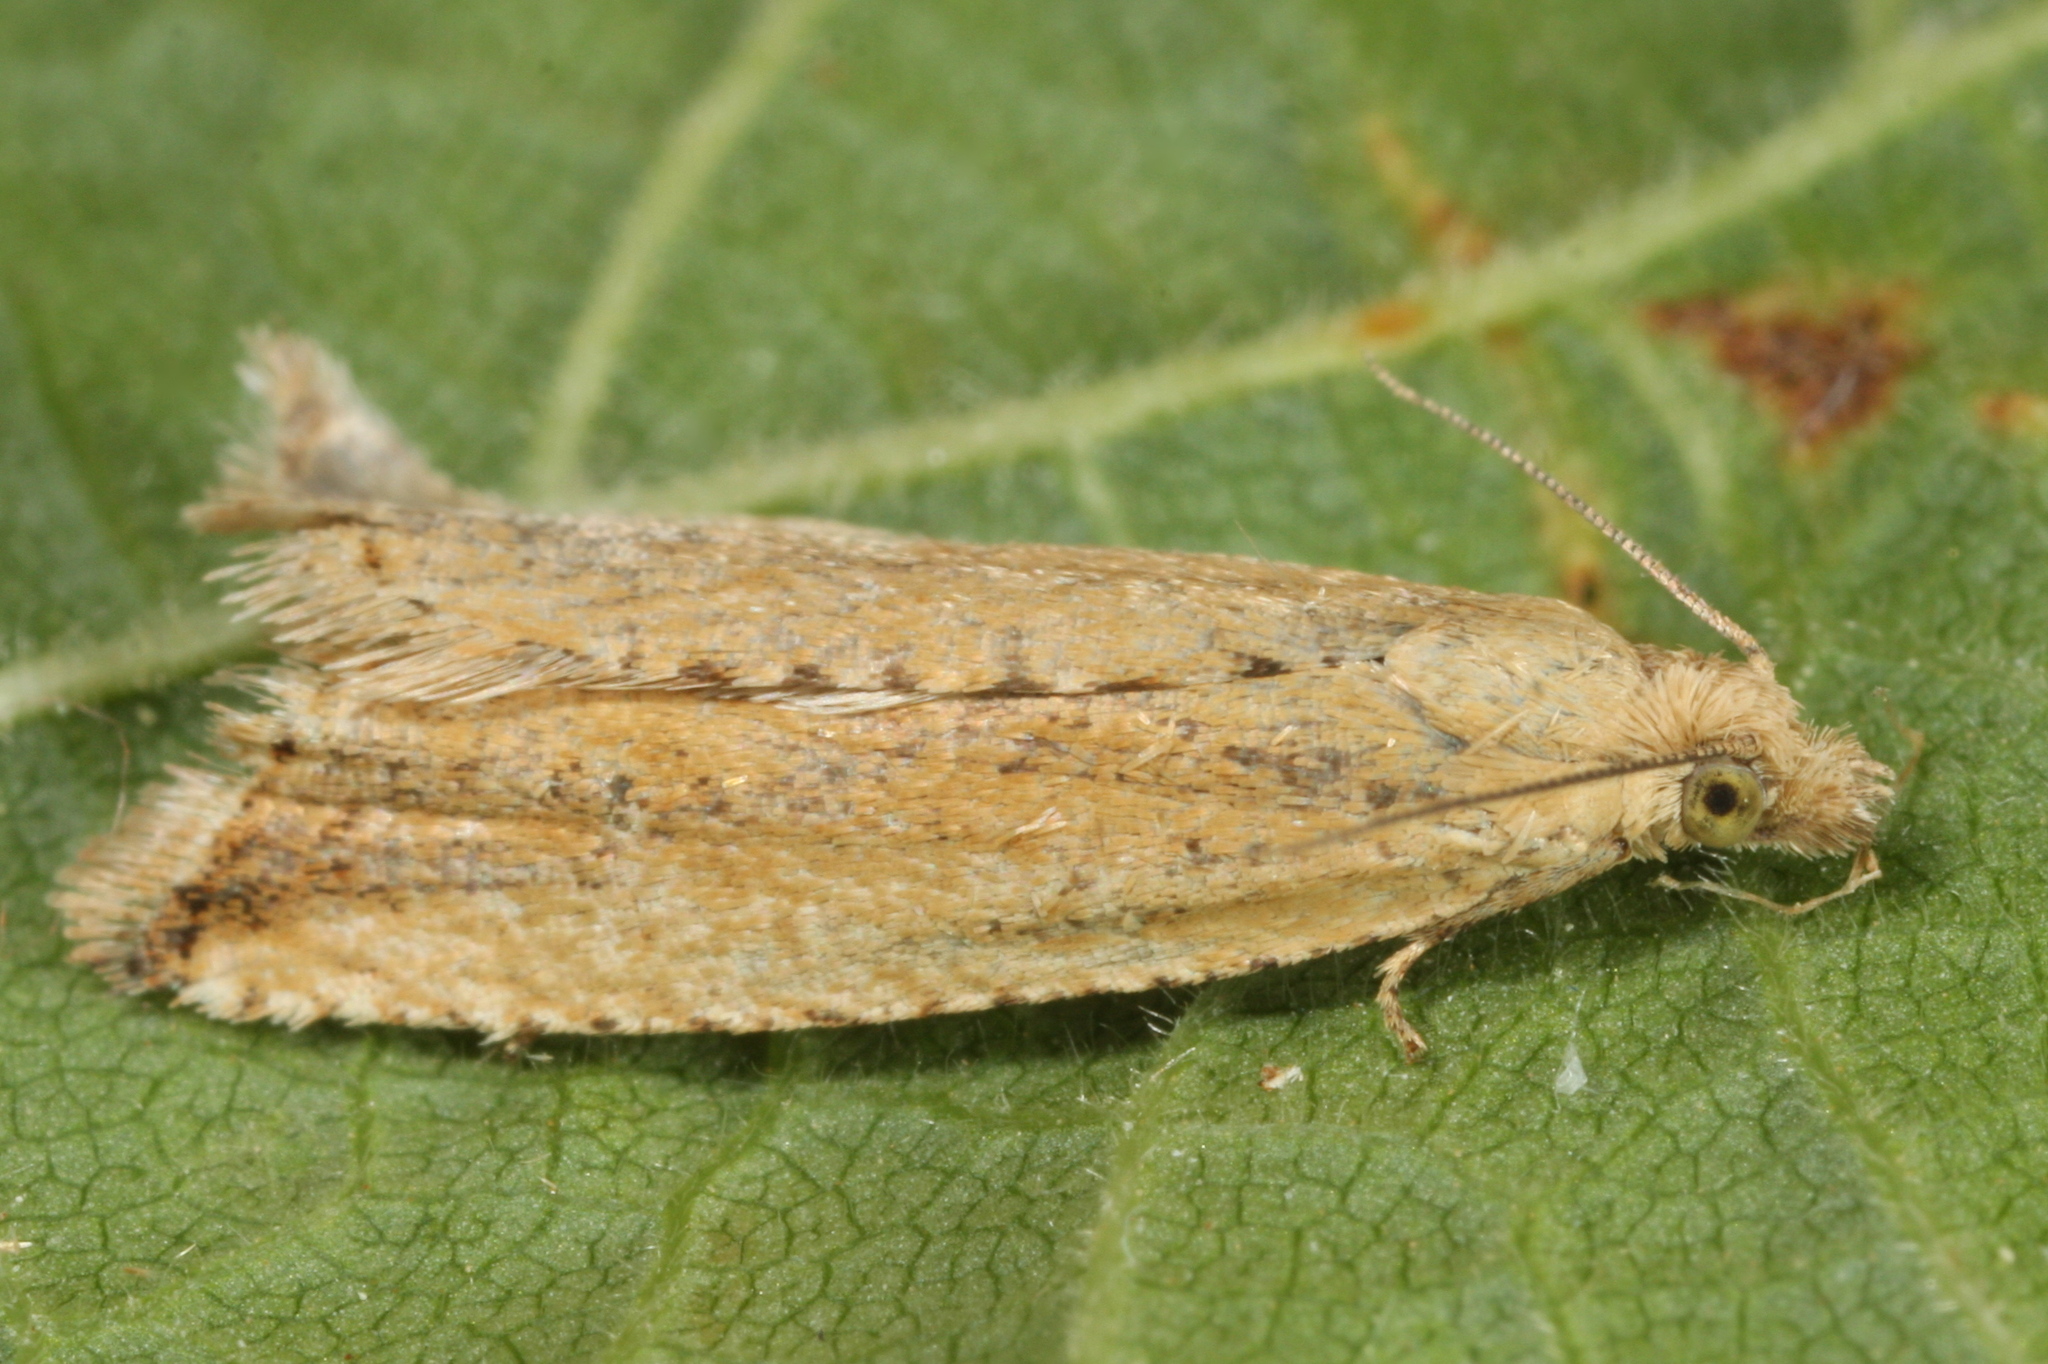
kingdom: Animalia
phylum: Arthropoda
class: Insecta
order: Lepidoptera
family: Tortricidae
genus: Bactra
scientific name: Bactra lancealana
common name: Rush marble
